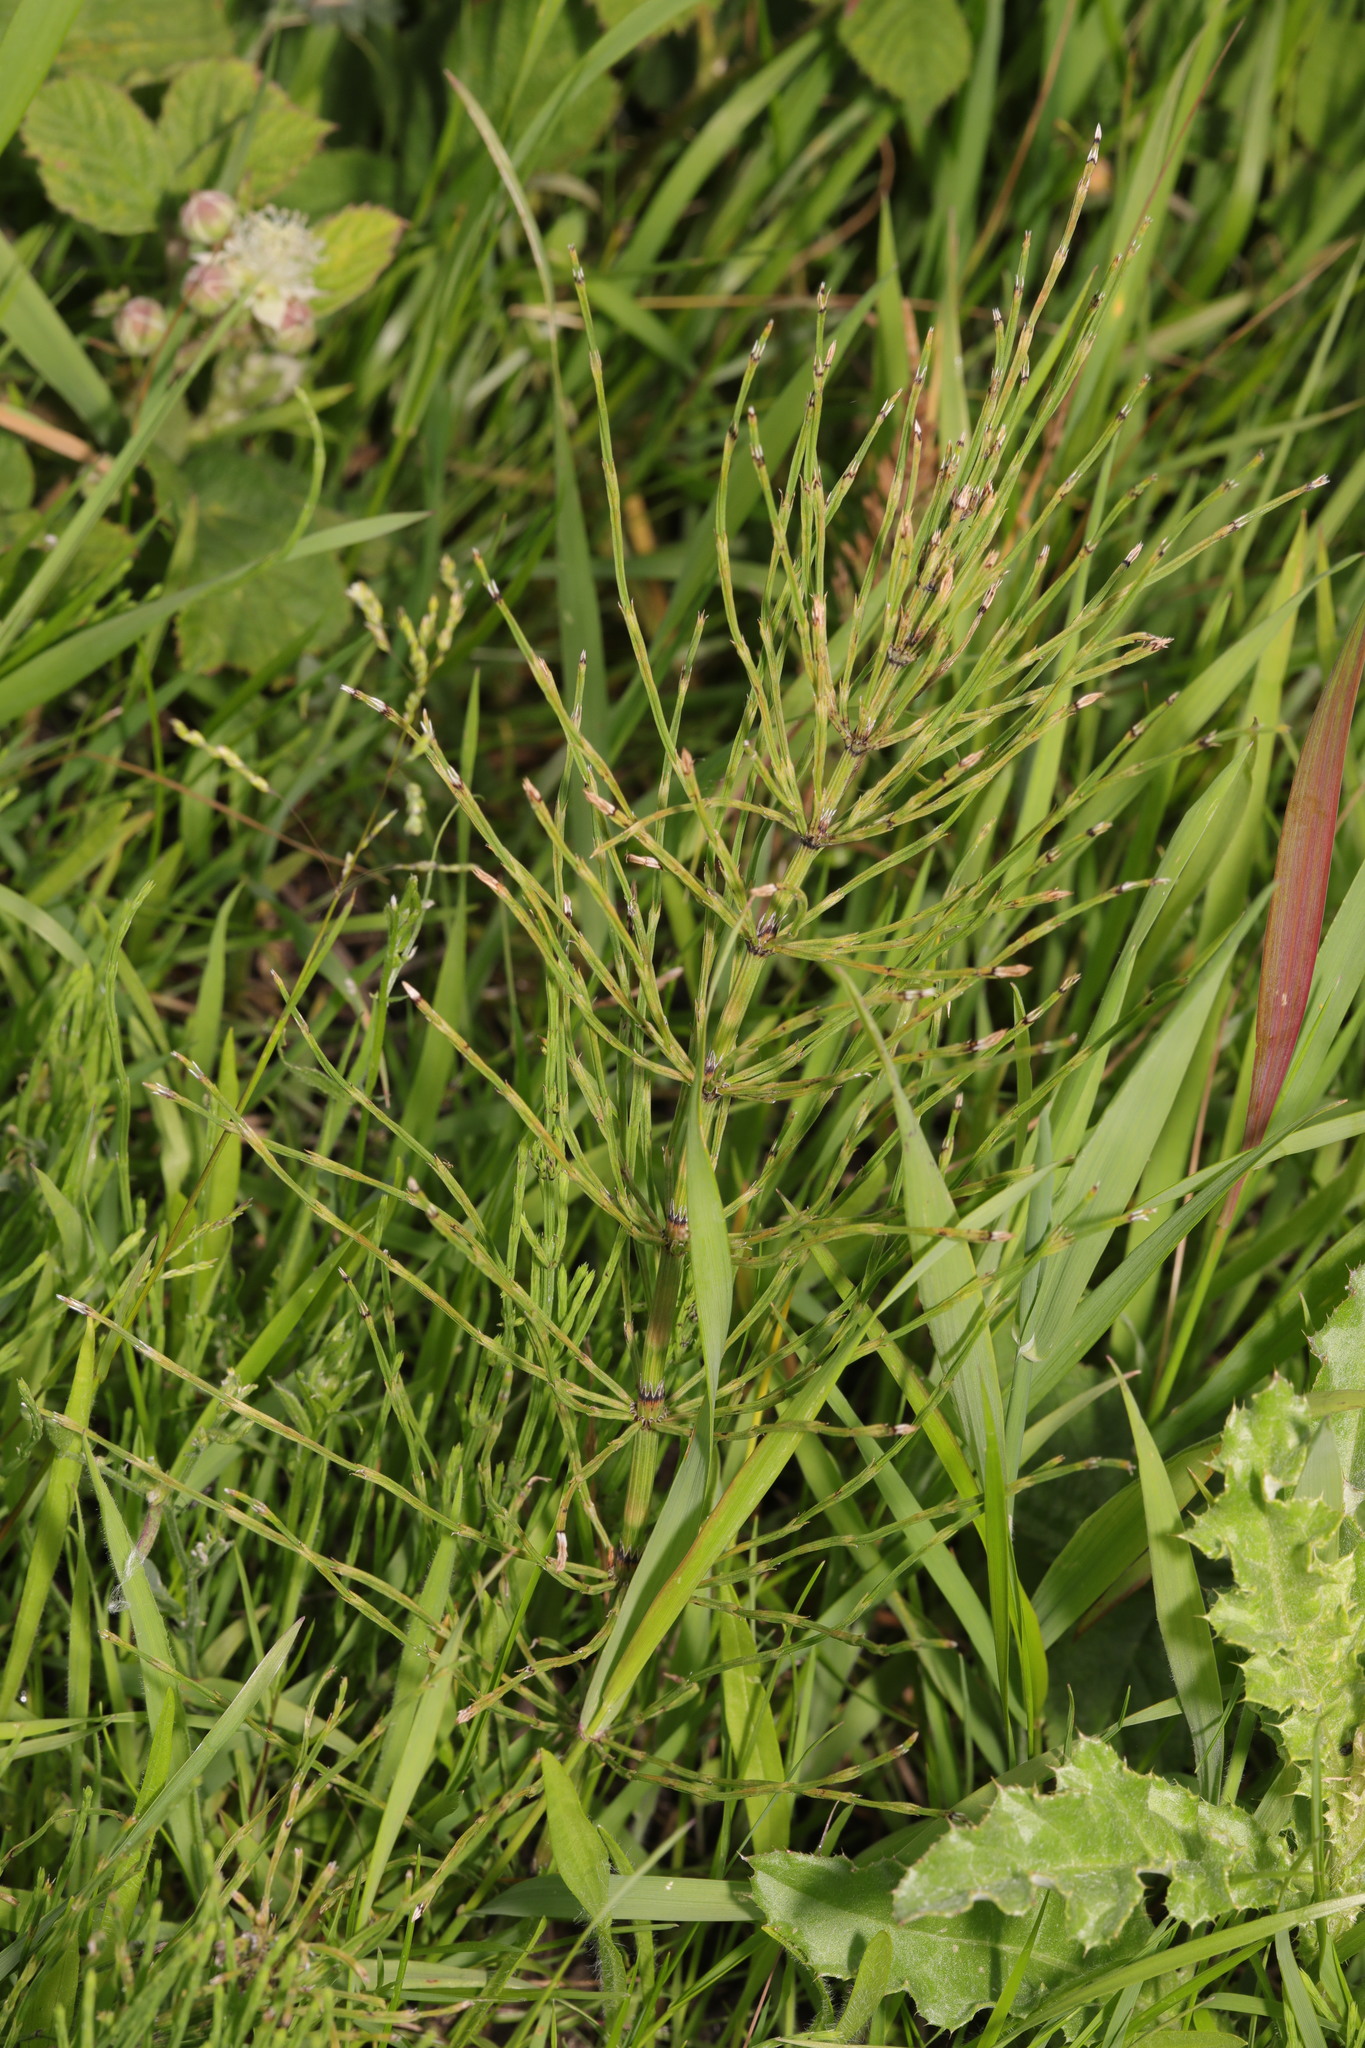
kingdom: Plantae
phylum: Tracheophyta
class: Polypodiopsida
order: Equisetales
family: Equisetaceae
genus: Equisetum
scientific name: Equisetum arvense
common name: Field horsetail
